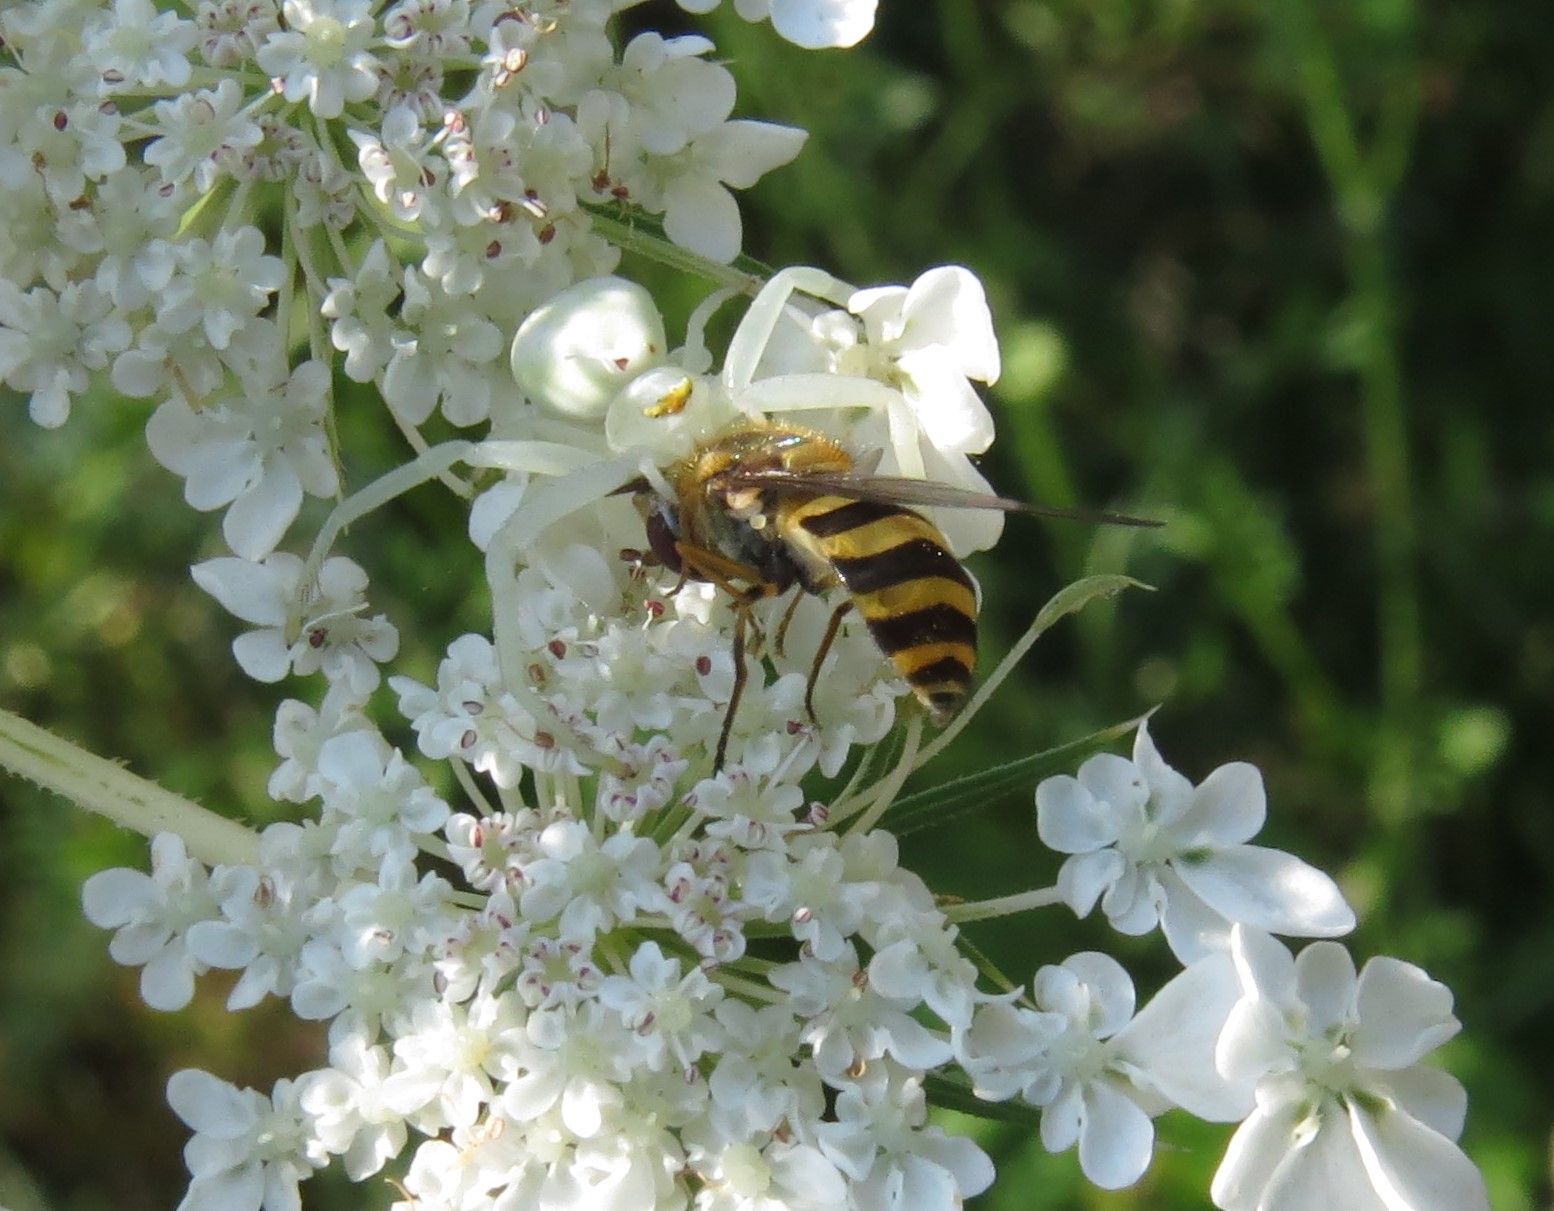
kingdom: Animalia
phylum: Arthropoda
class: Arachnida
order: Araneae
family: Thomisidae
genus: Misumena
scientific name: Misumena vatia
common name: Goldenrod crab spider
